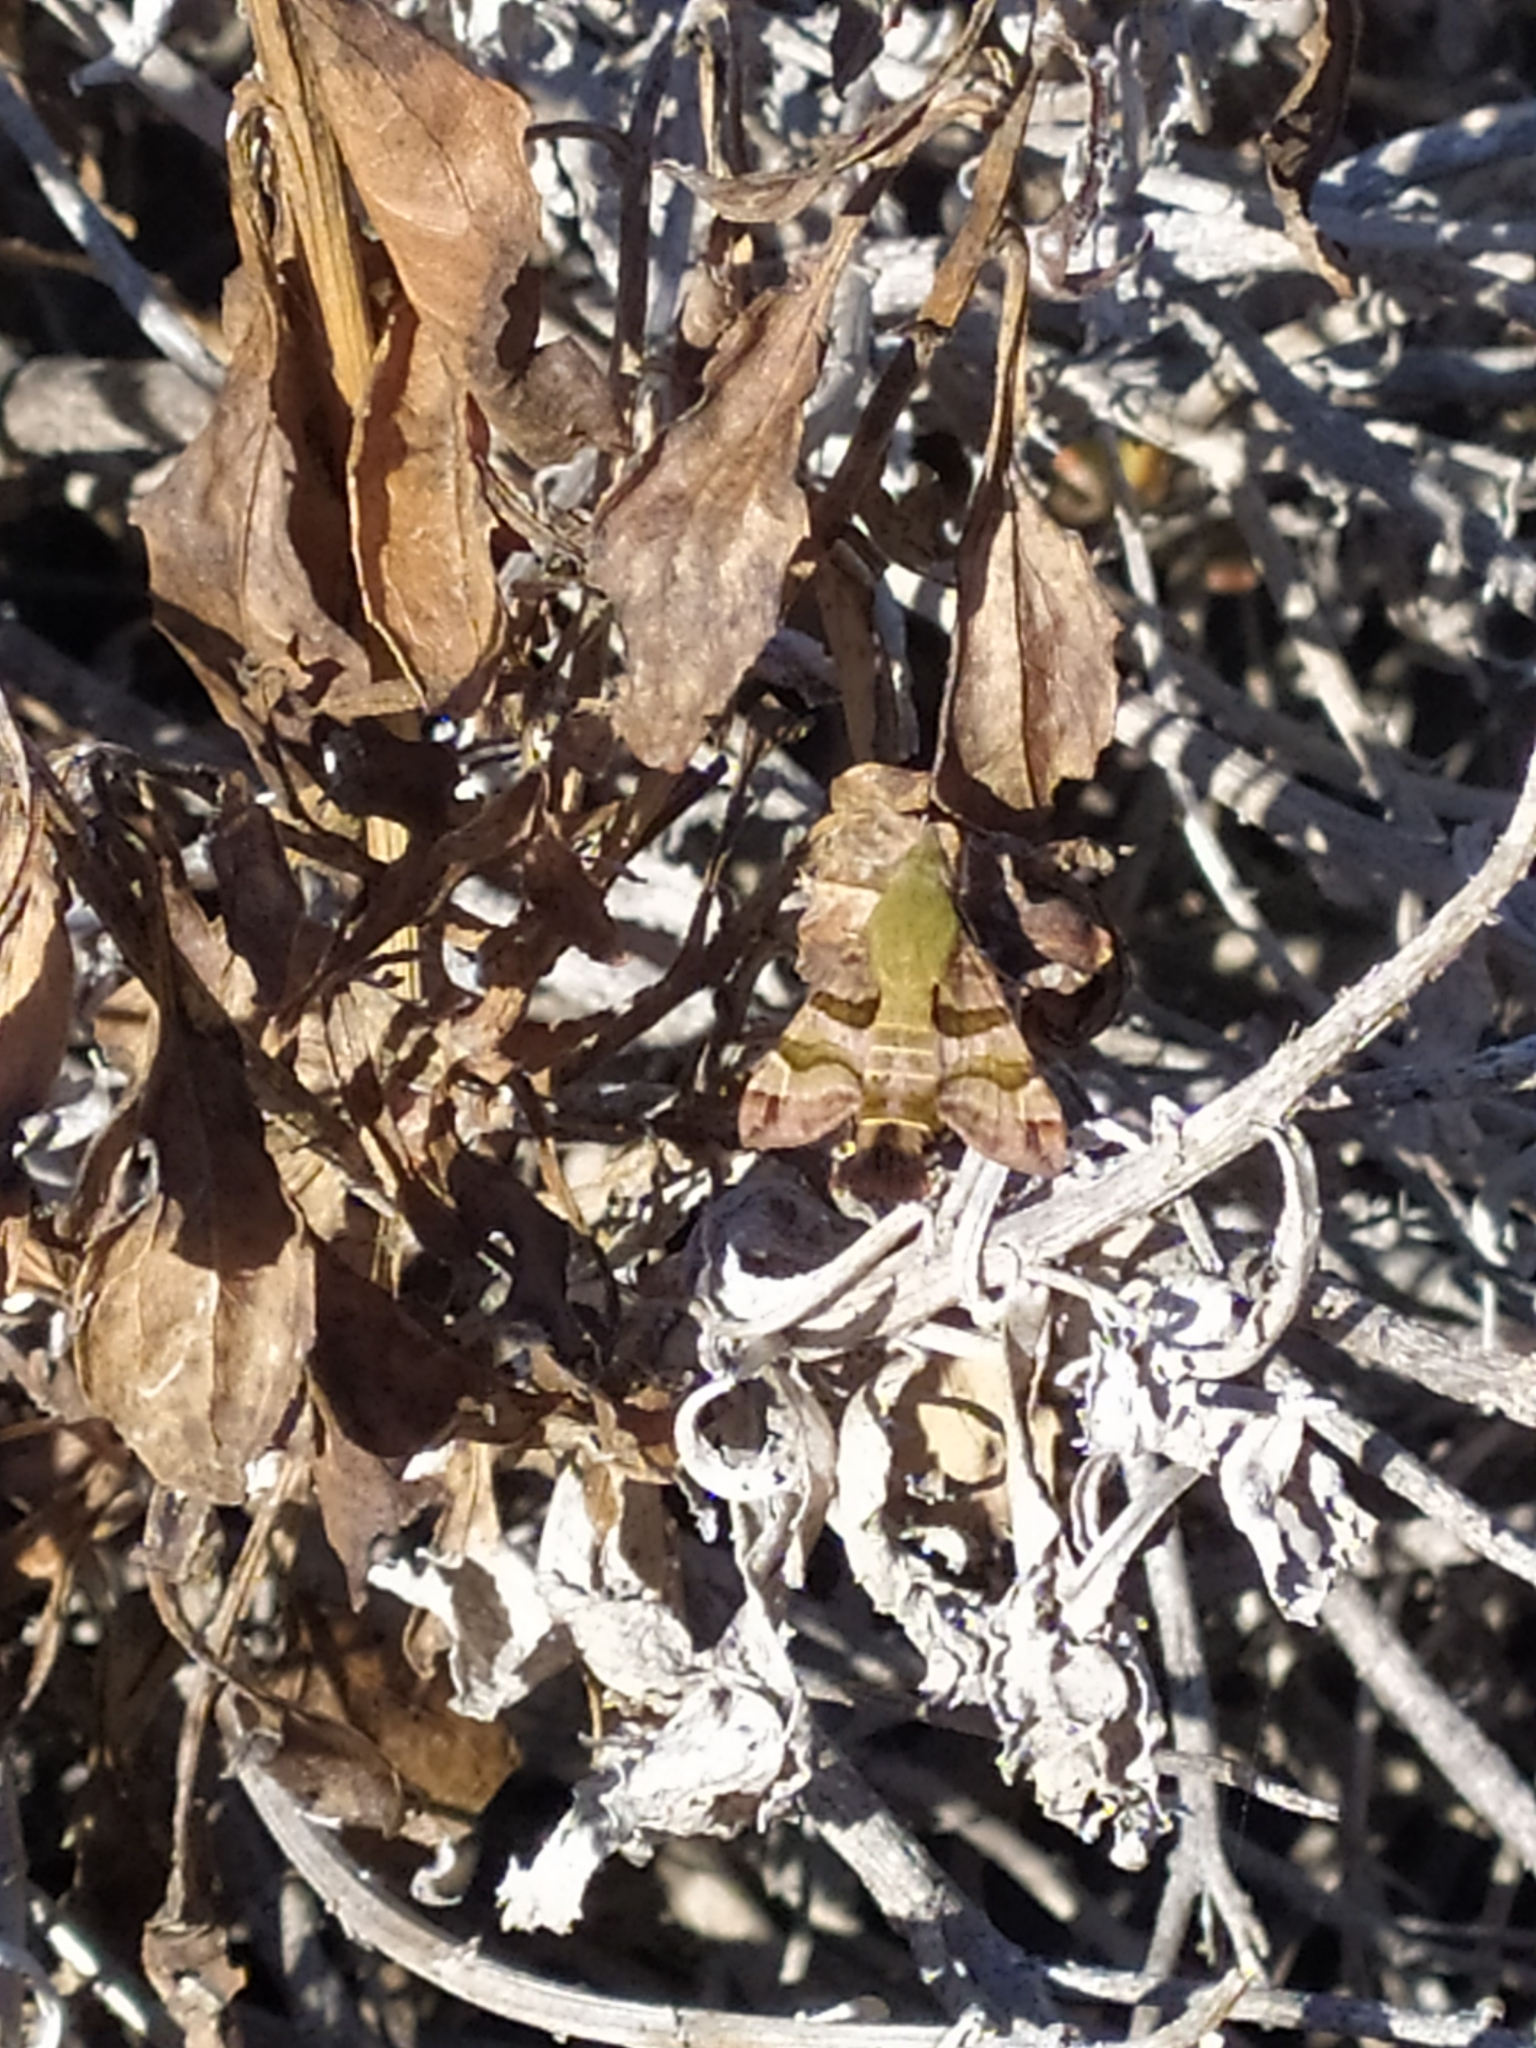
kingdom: Animalia
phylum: Arthropoda
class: Insecta
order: Lepidoptera
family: Sphingidae
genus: Macroglossum
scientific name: Macroglossum trochilus
